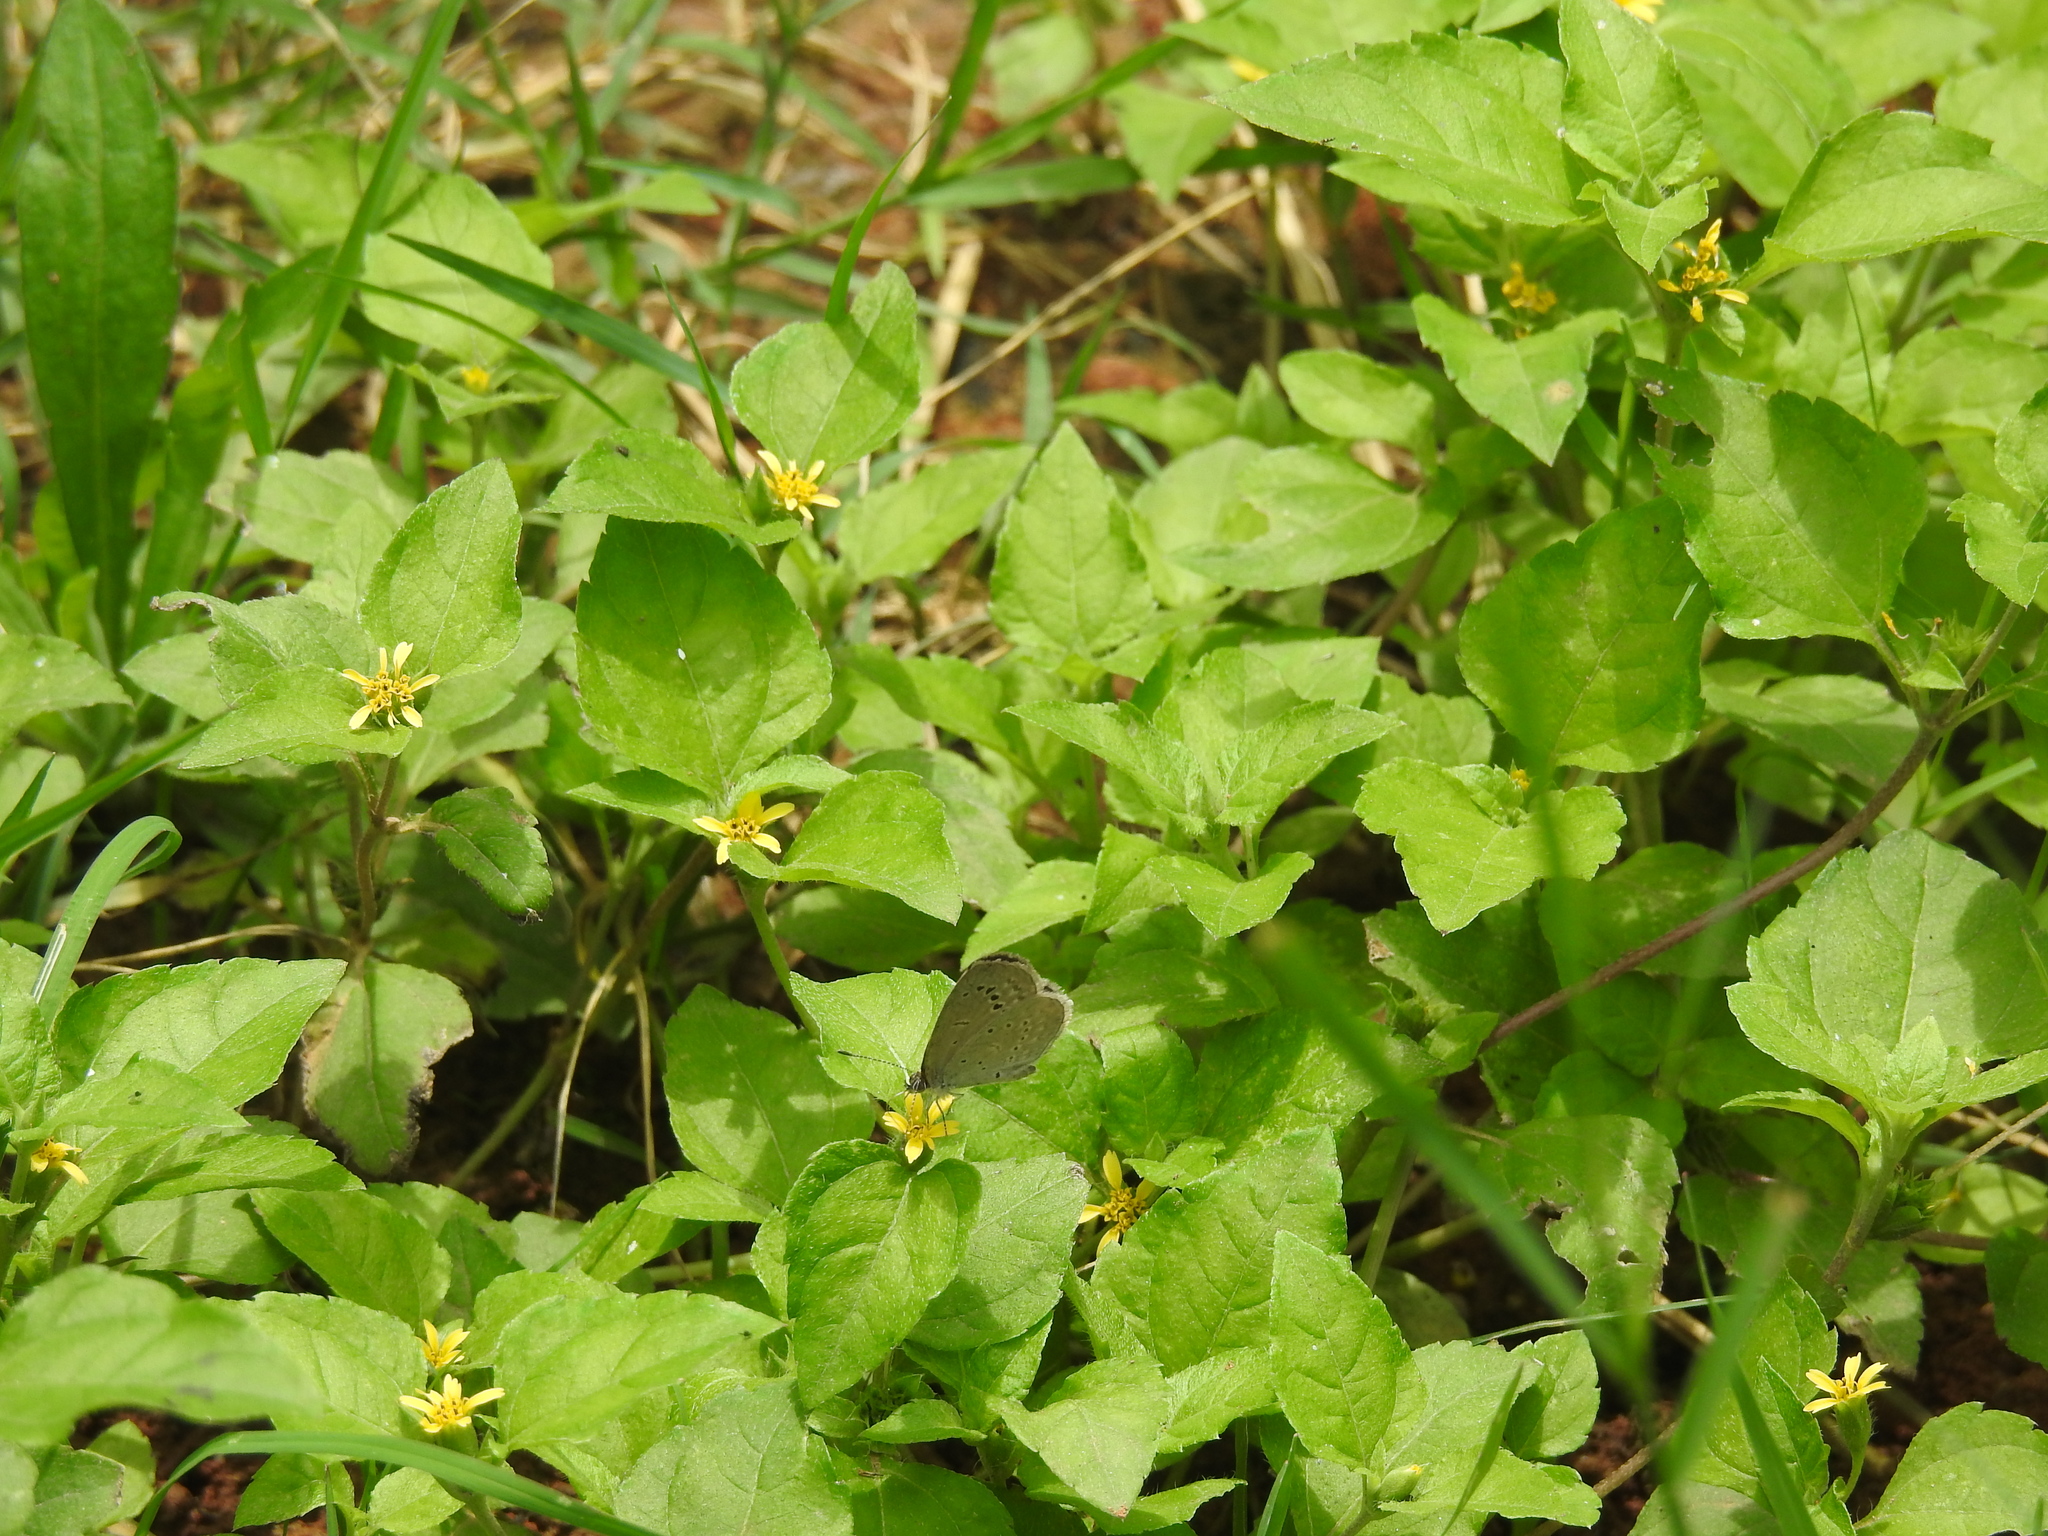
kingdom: Animalia
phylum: Arthropoda
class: Insecta
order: Lepidoptera
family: Lycaenidae
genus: Pseudozizeeria
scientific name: Pseudozizeeria maha
